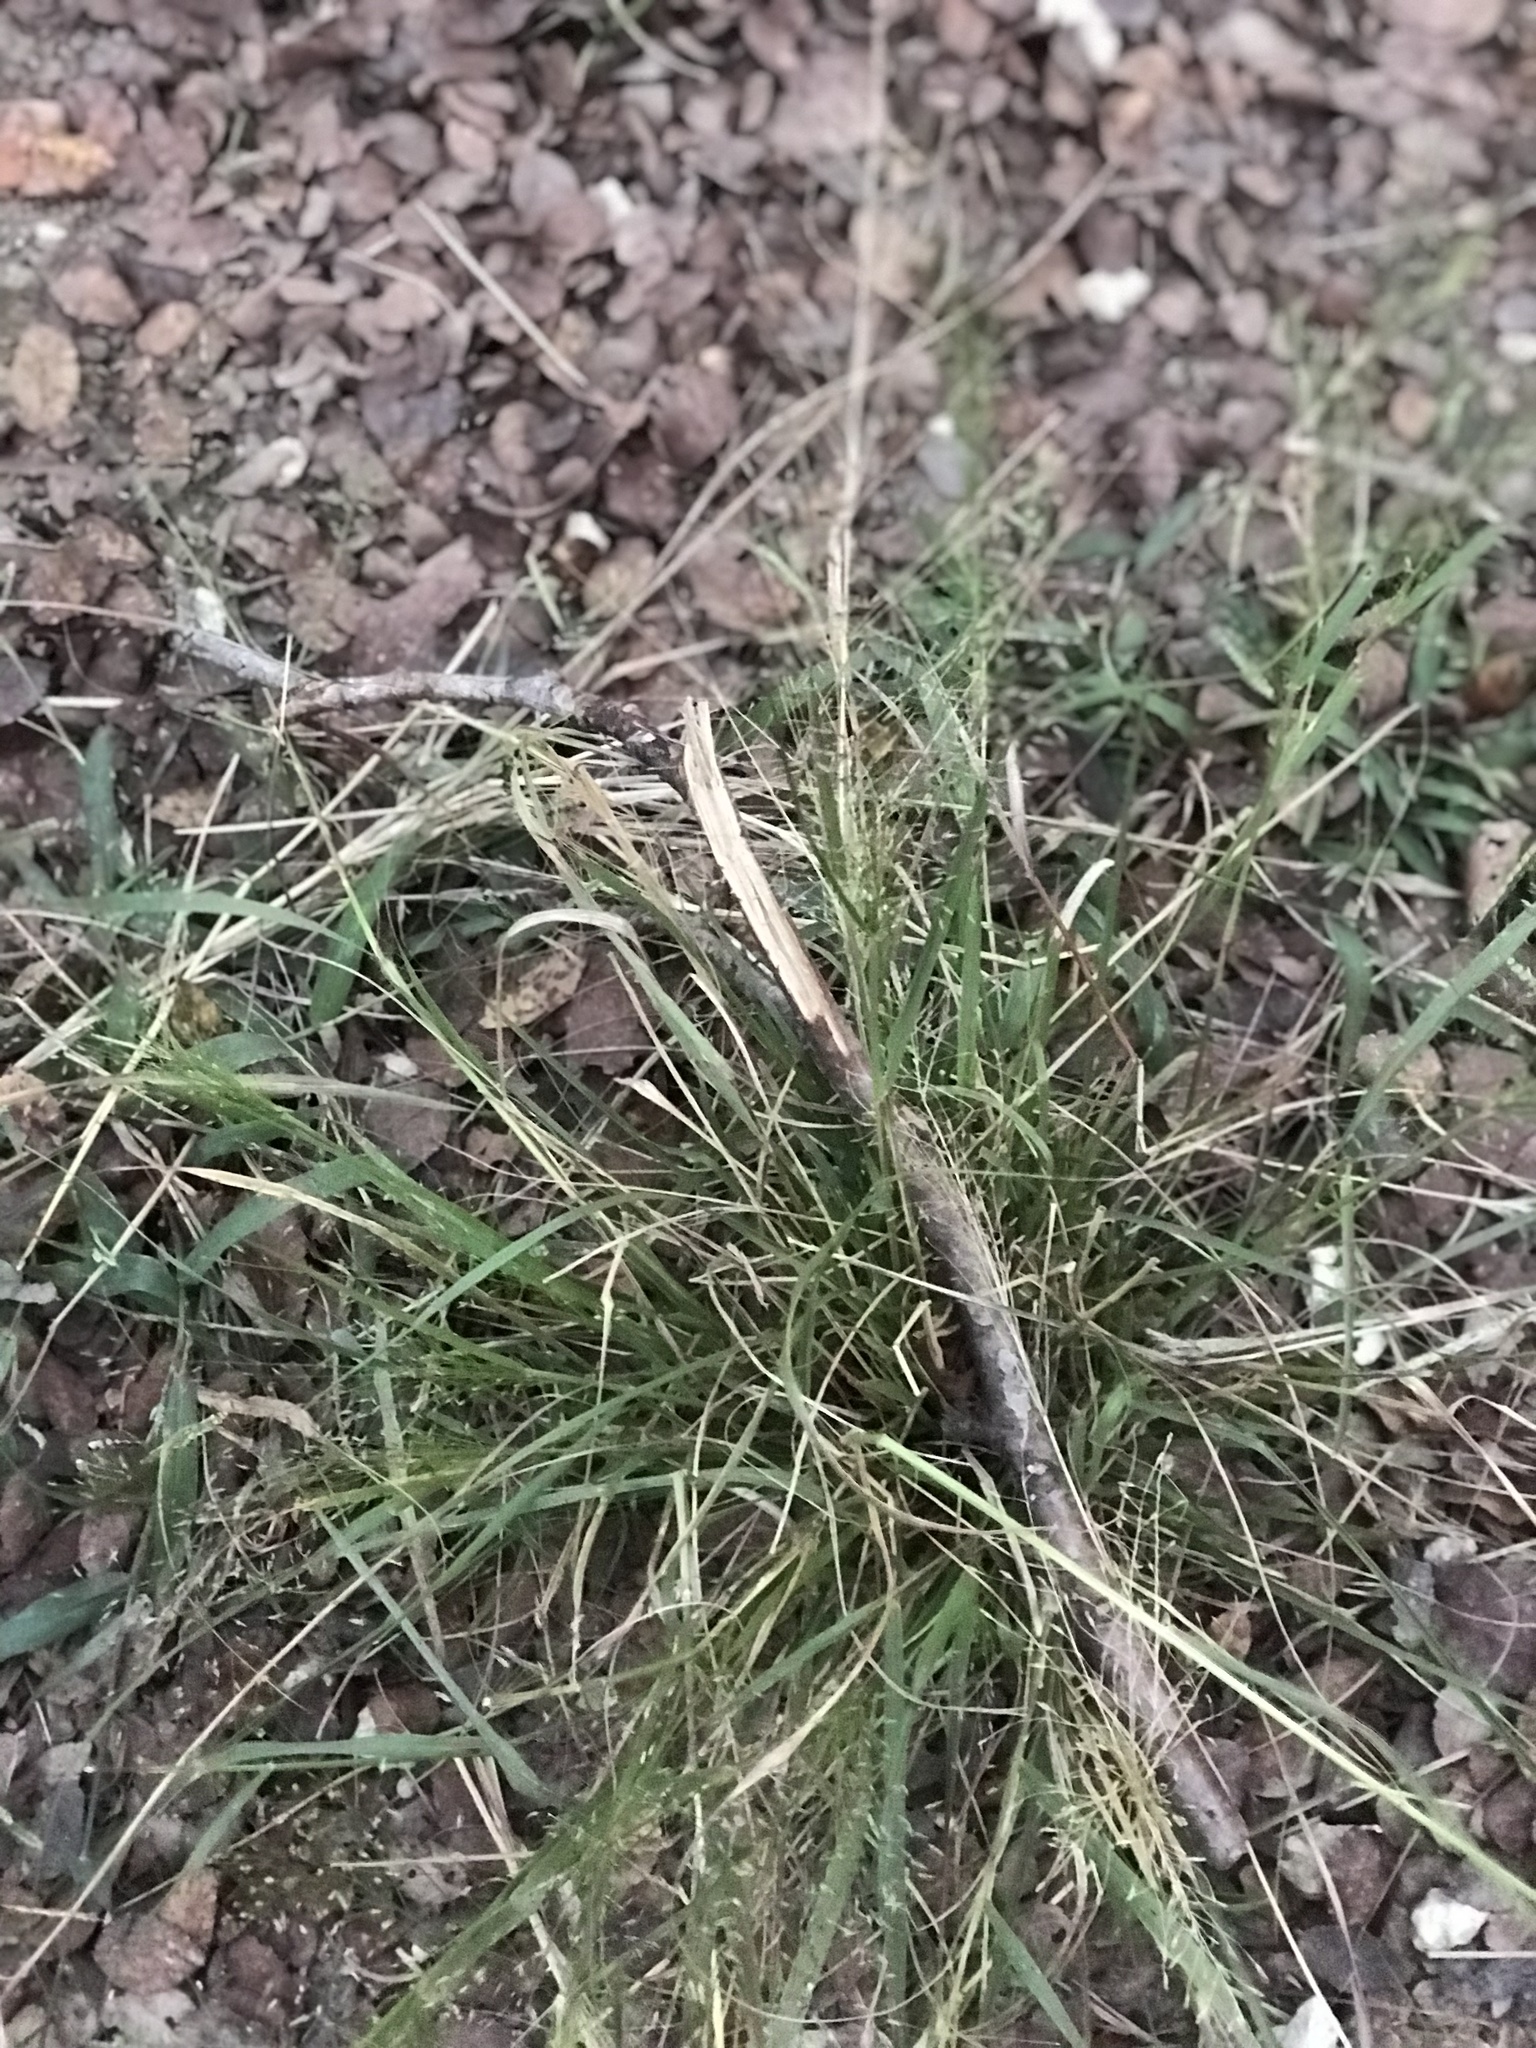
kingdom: Plantae
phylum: Tracheophyta
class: Liliopsida
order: Poales
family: Poaceae
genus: Eragrostis
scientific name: Eragrostis
